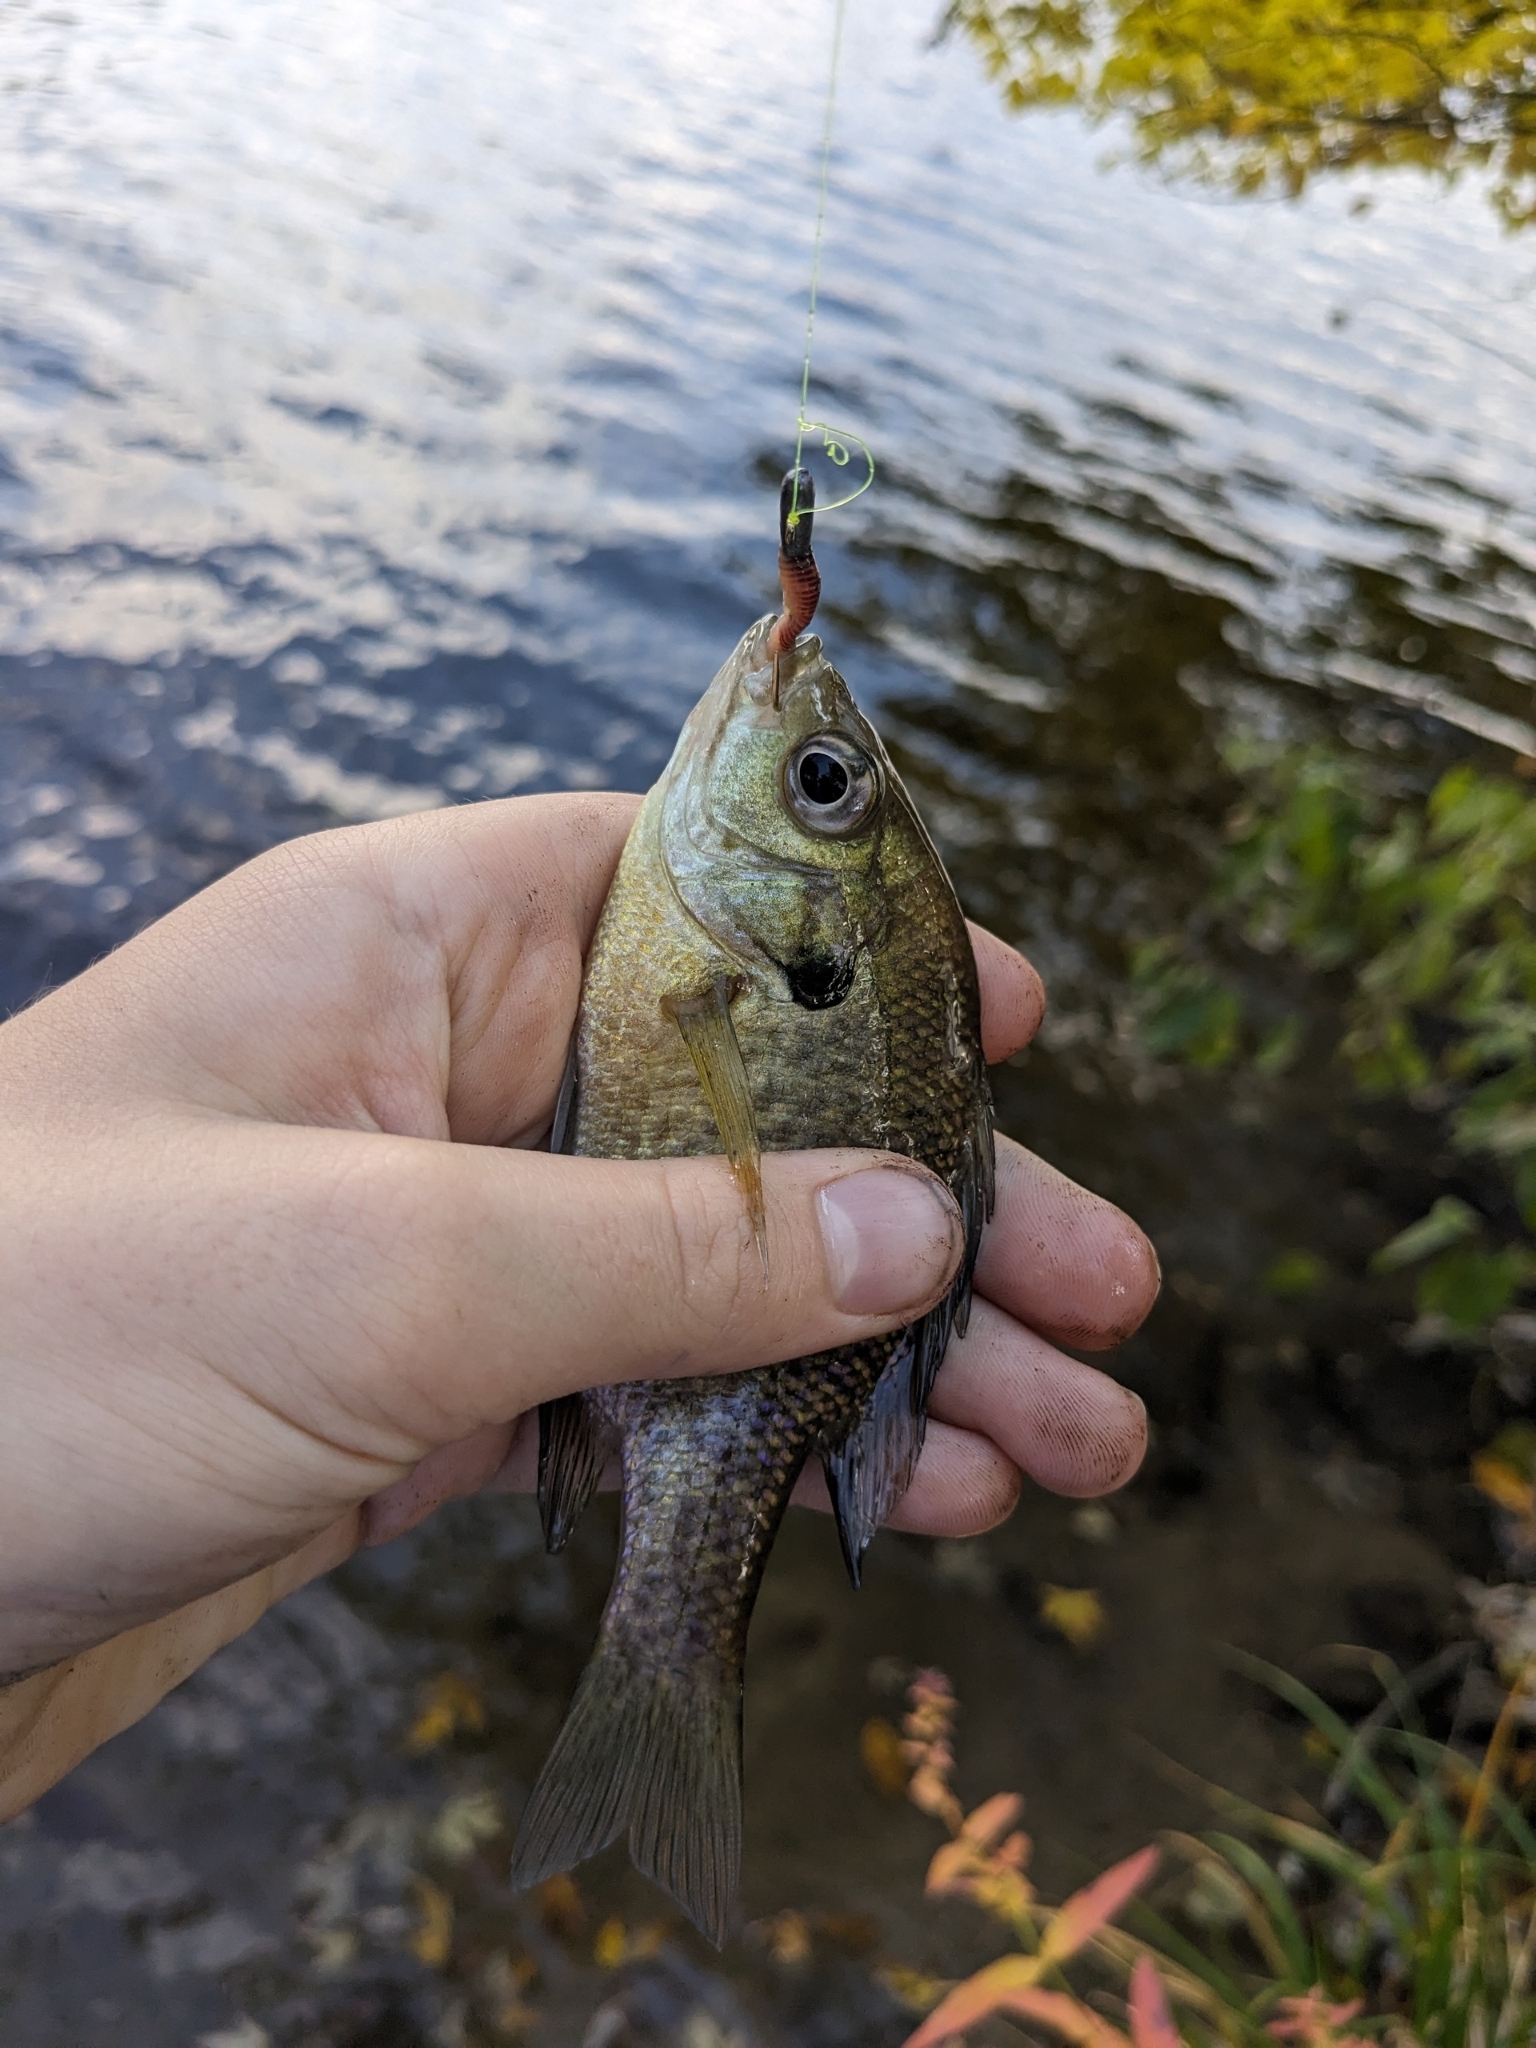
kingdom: Animalia
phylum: Chordata
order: Perciformes
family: Centrarchidae
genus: Lepomis
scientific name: Lepomis macrochirus
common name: Bluegill
